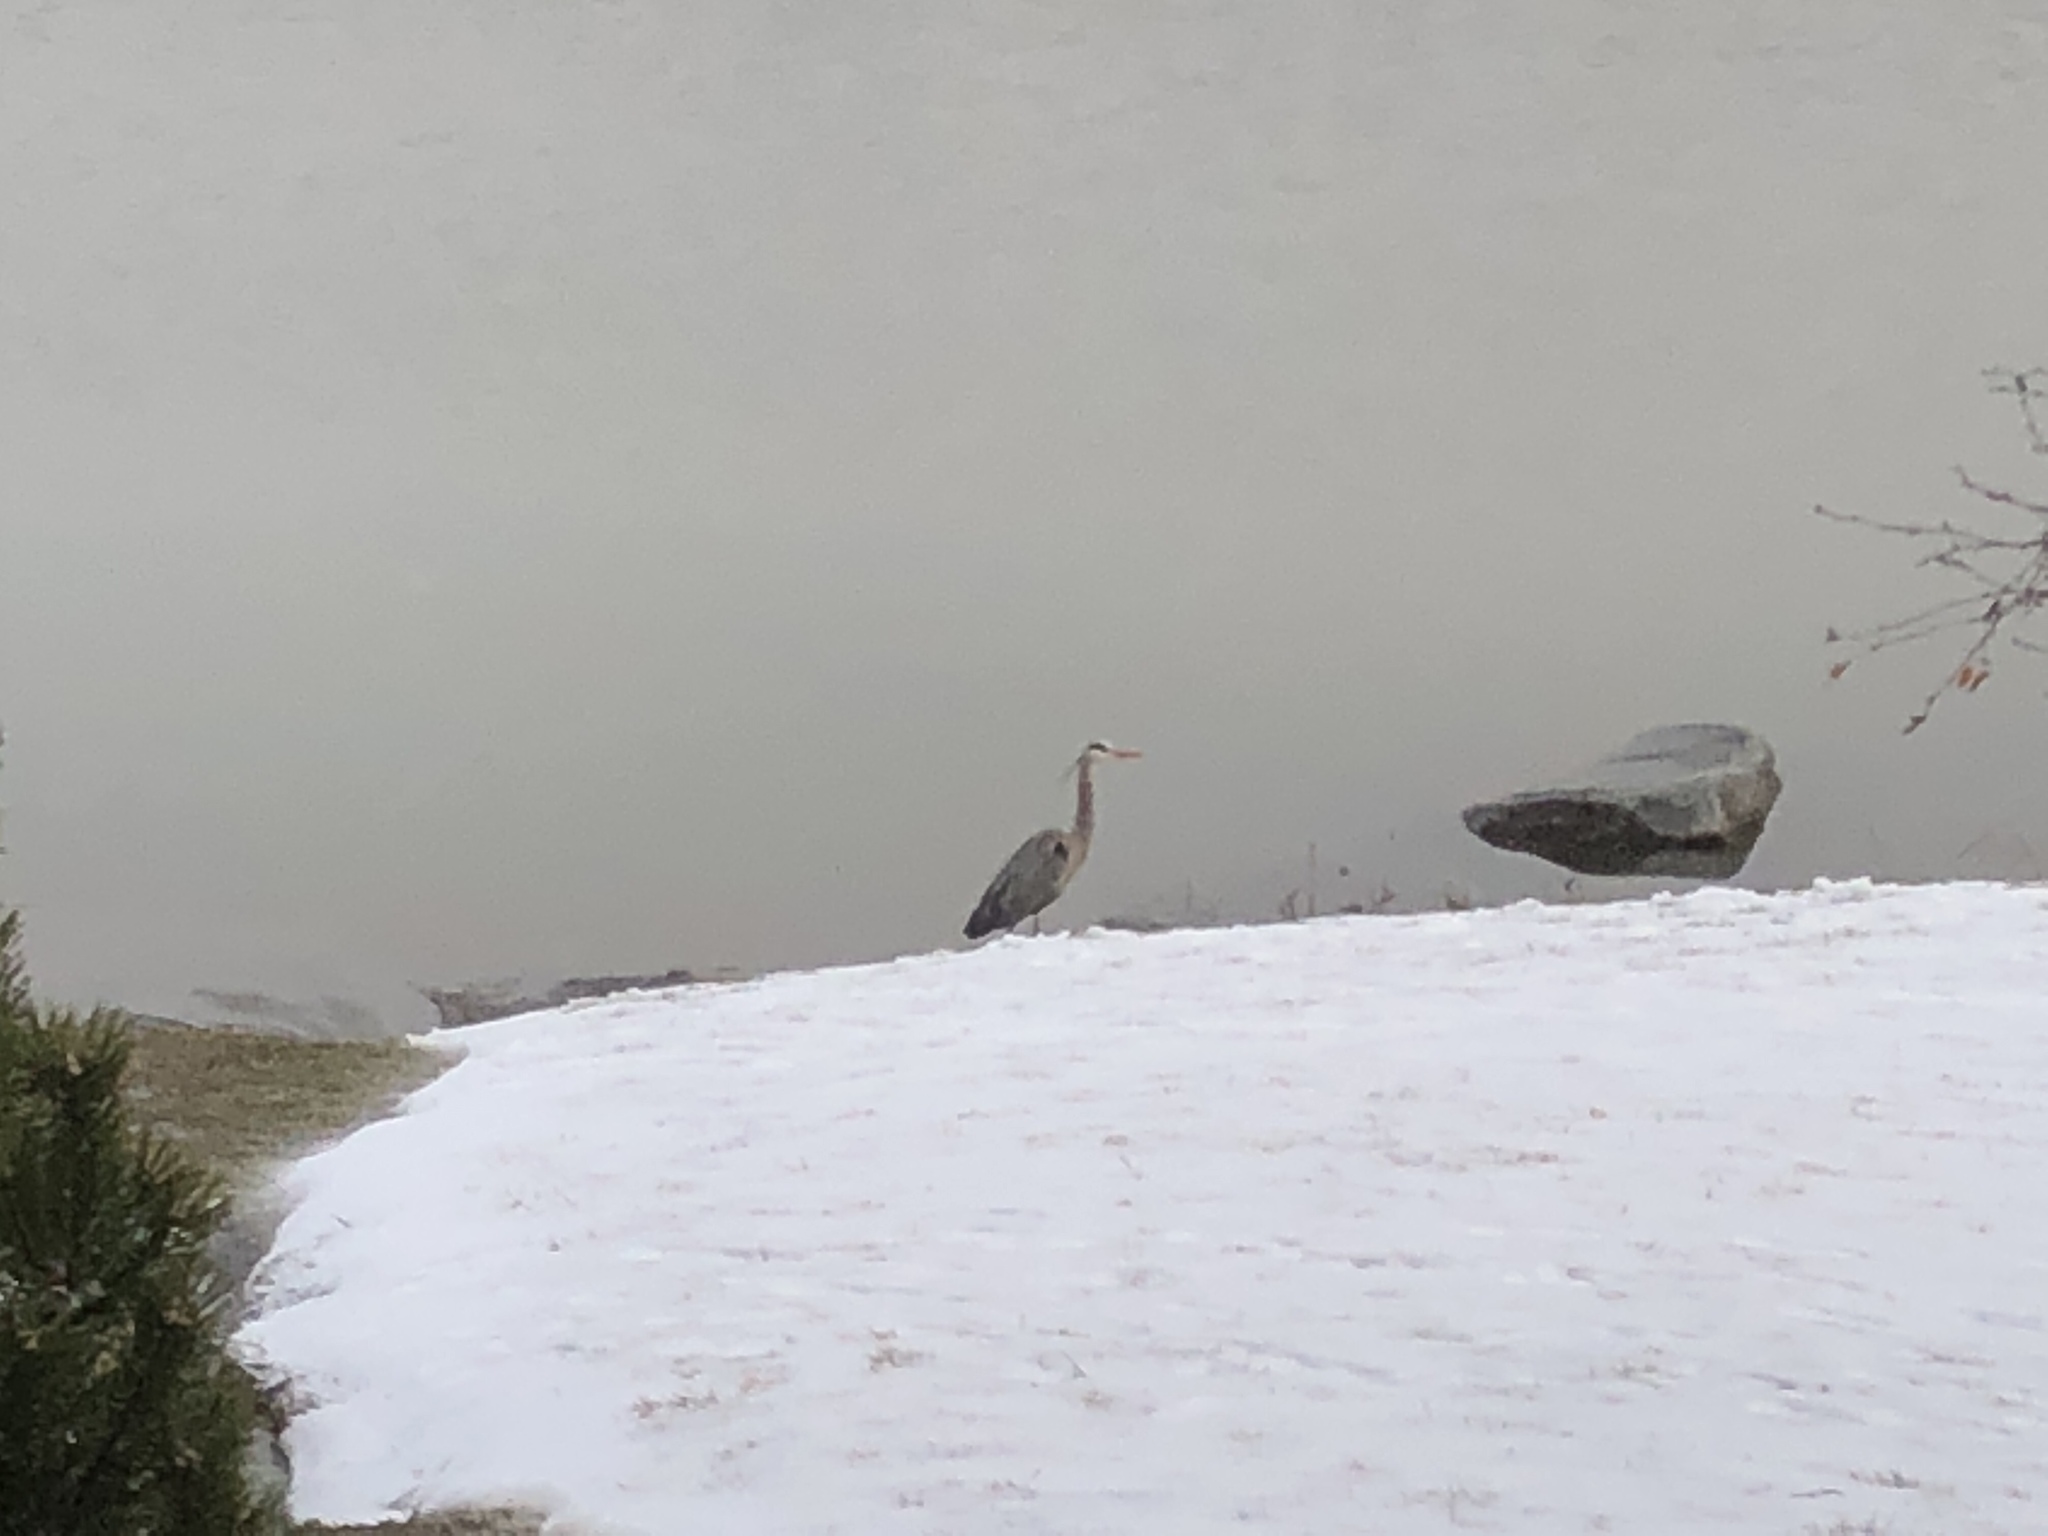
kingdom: Animalia
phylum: Chordata
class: Aves
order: Pelecaniformes
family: Ardeidae
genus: Ardea
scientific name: Ardea herodias
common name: Great blue heron
